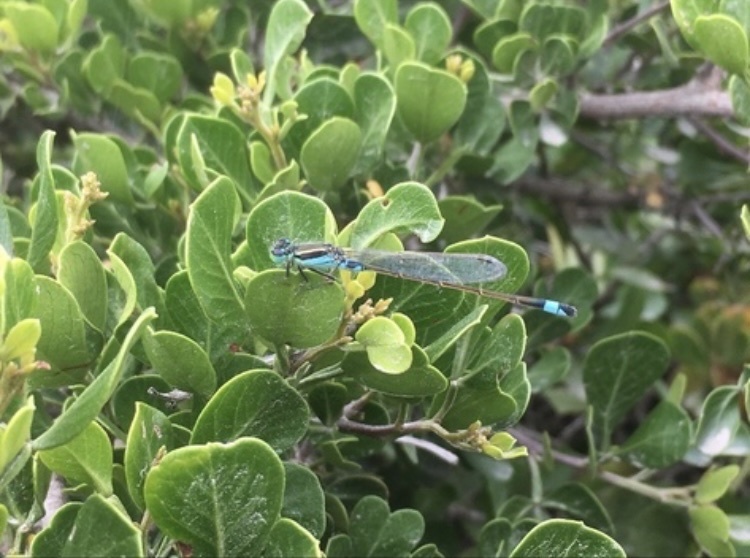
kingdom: Animalia
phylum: Arthropoda
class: Insecta
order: Odonata
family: Coenagrionidae
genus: Ischnura
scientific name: Ischnura senegalensis
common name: Tropical bluetail
